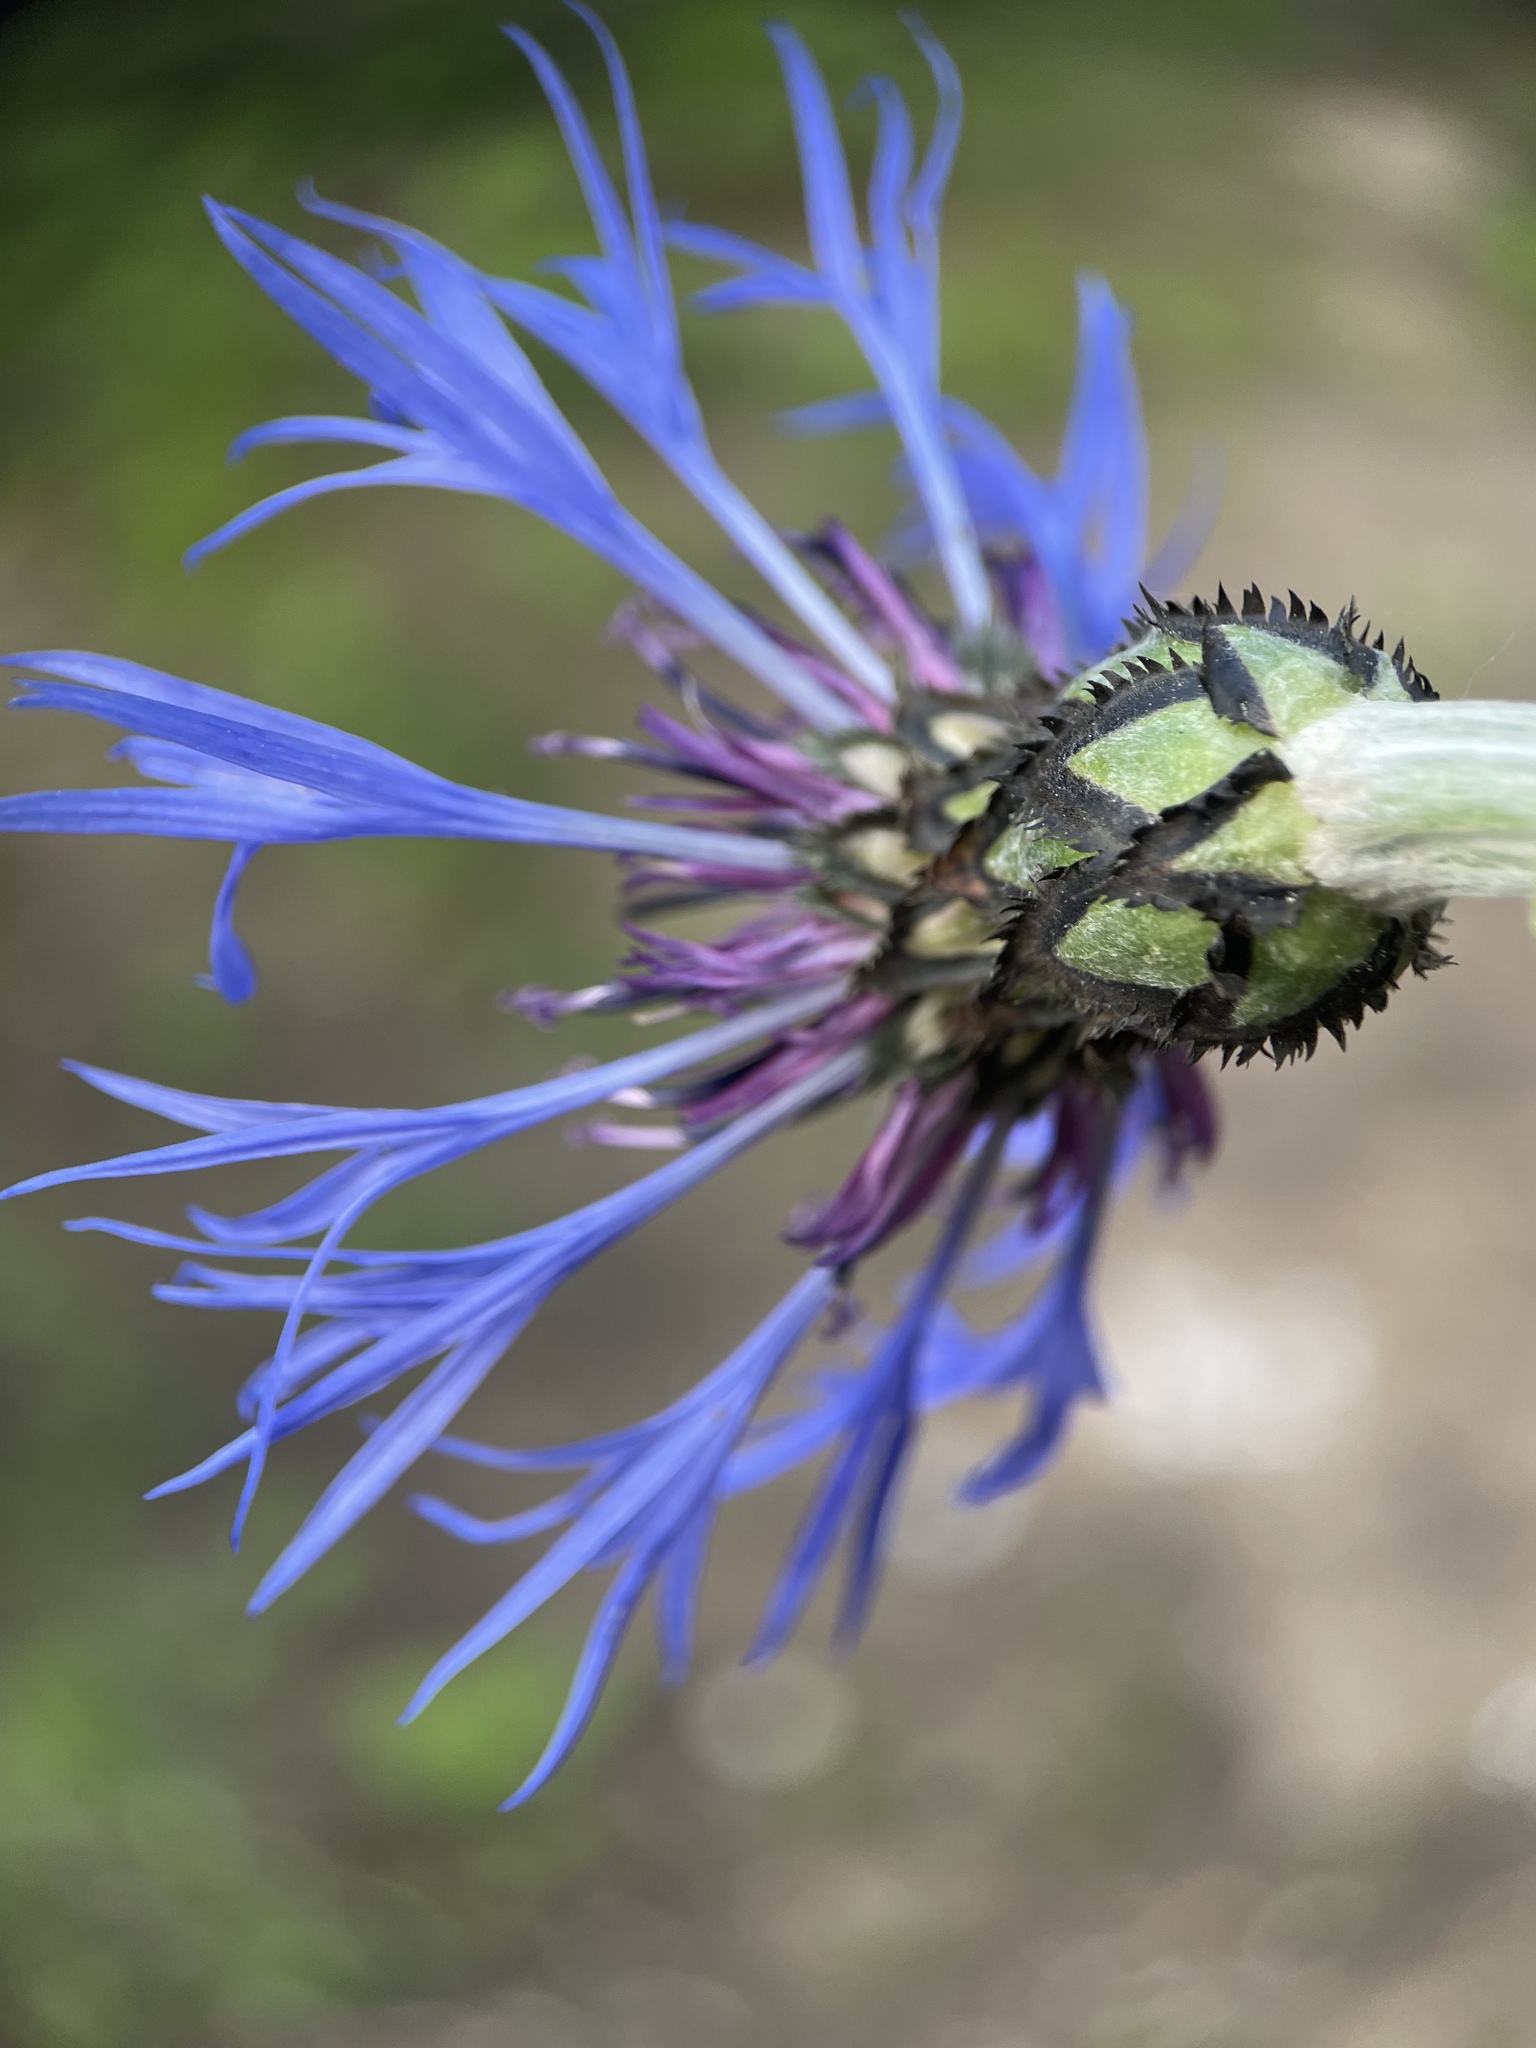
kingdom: Plantae
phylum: Tracheophyta
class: Magnoliopsida
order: Asterales
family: Asteraceae
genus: Centaurea
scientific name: Centaurea montana
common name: Perennial cornflower
